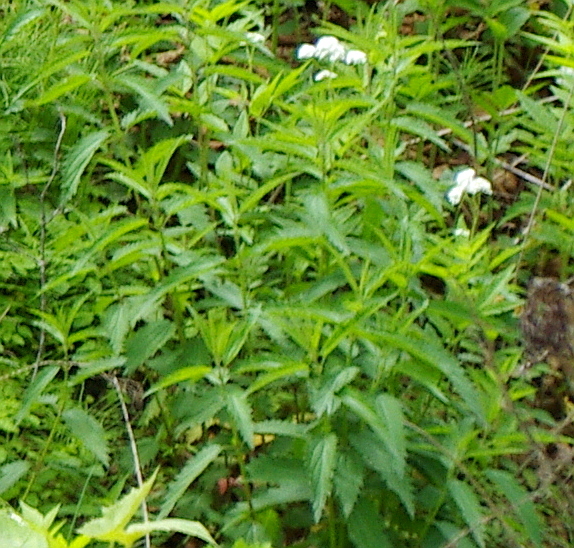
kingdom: Plantae
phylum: Tracheophyta
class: Magnoliopsida
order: Rosales
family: Urticaceae
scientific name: Urticaceae
